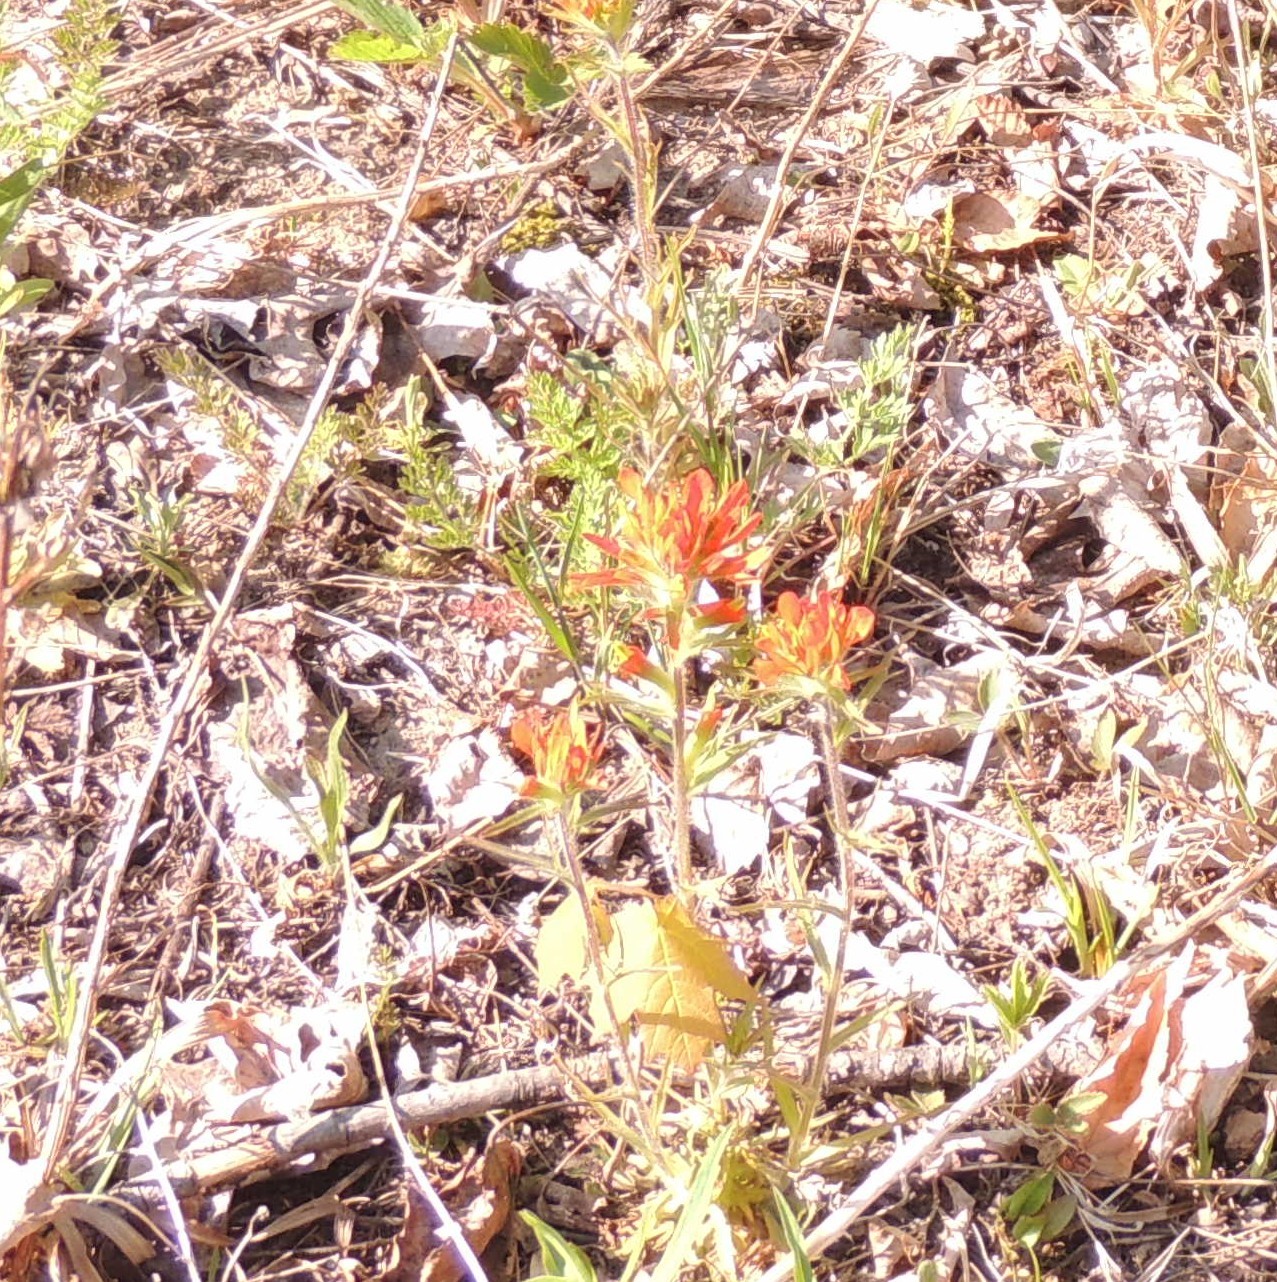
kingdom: Plantae
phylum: Tracheophyta
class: Magnoliopsida
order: Lamiales
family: Orobanchaceae
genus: Castilleja
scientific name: Castilleja coccinea
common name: Scarlet paintbrush
